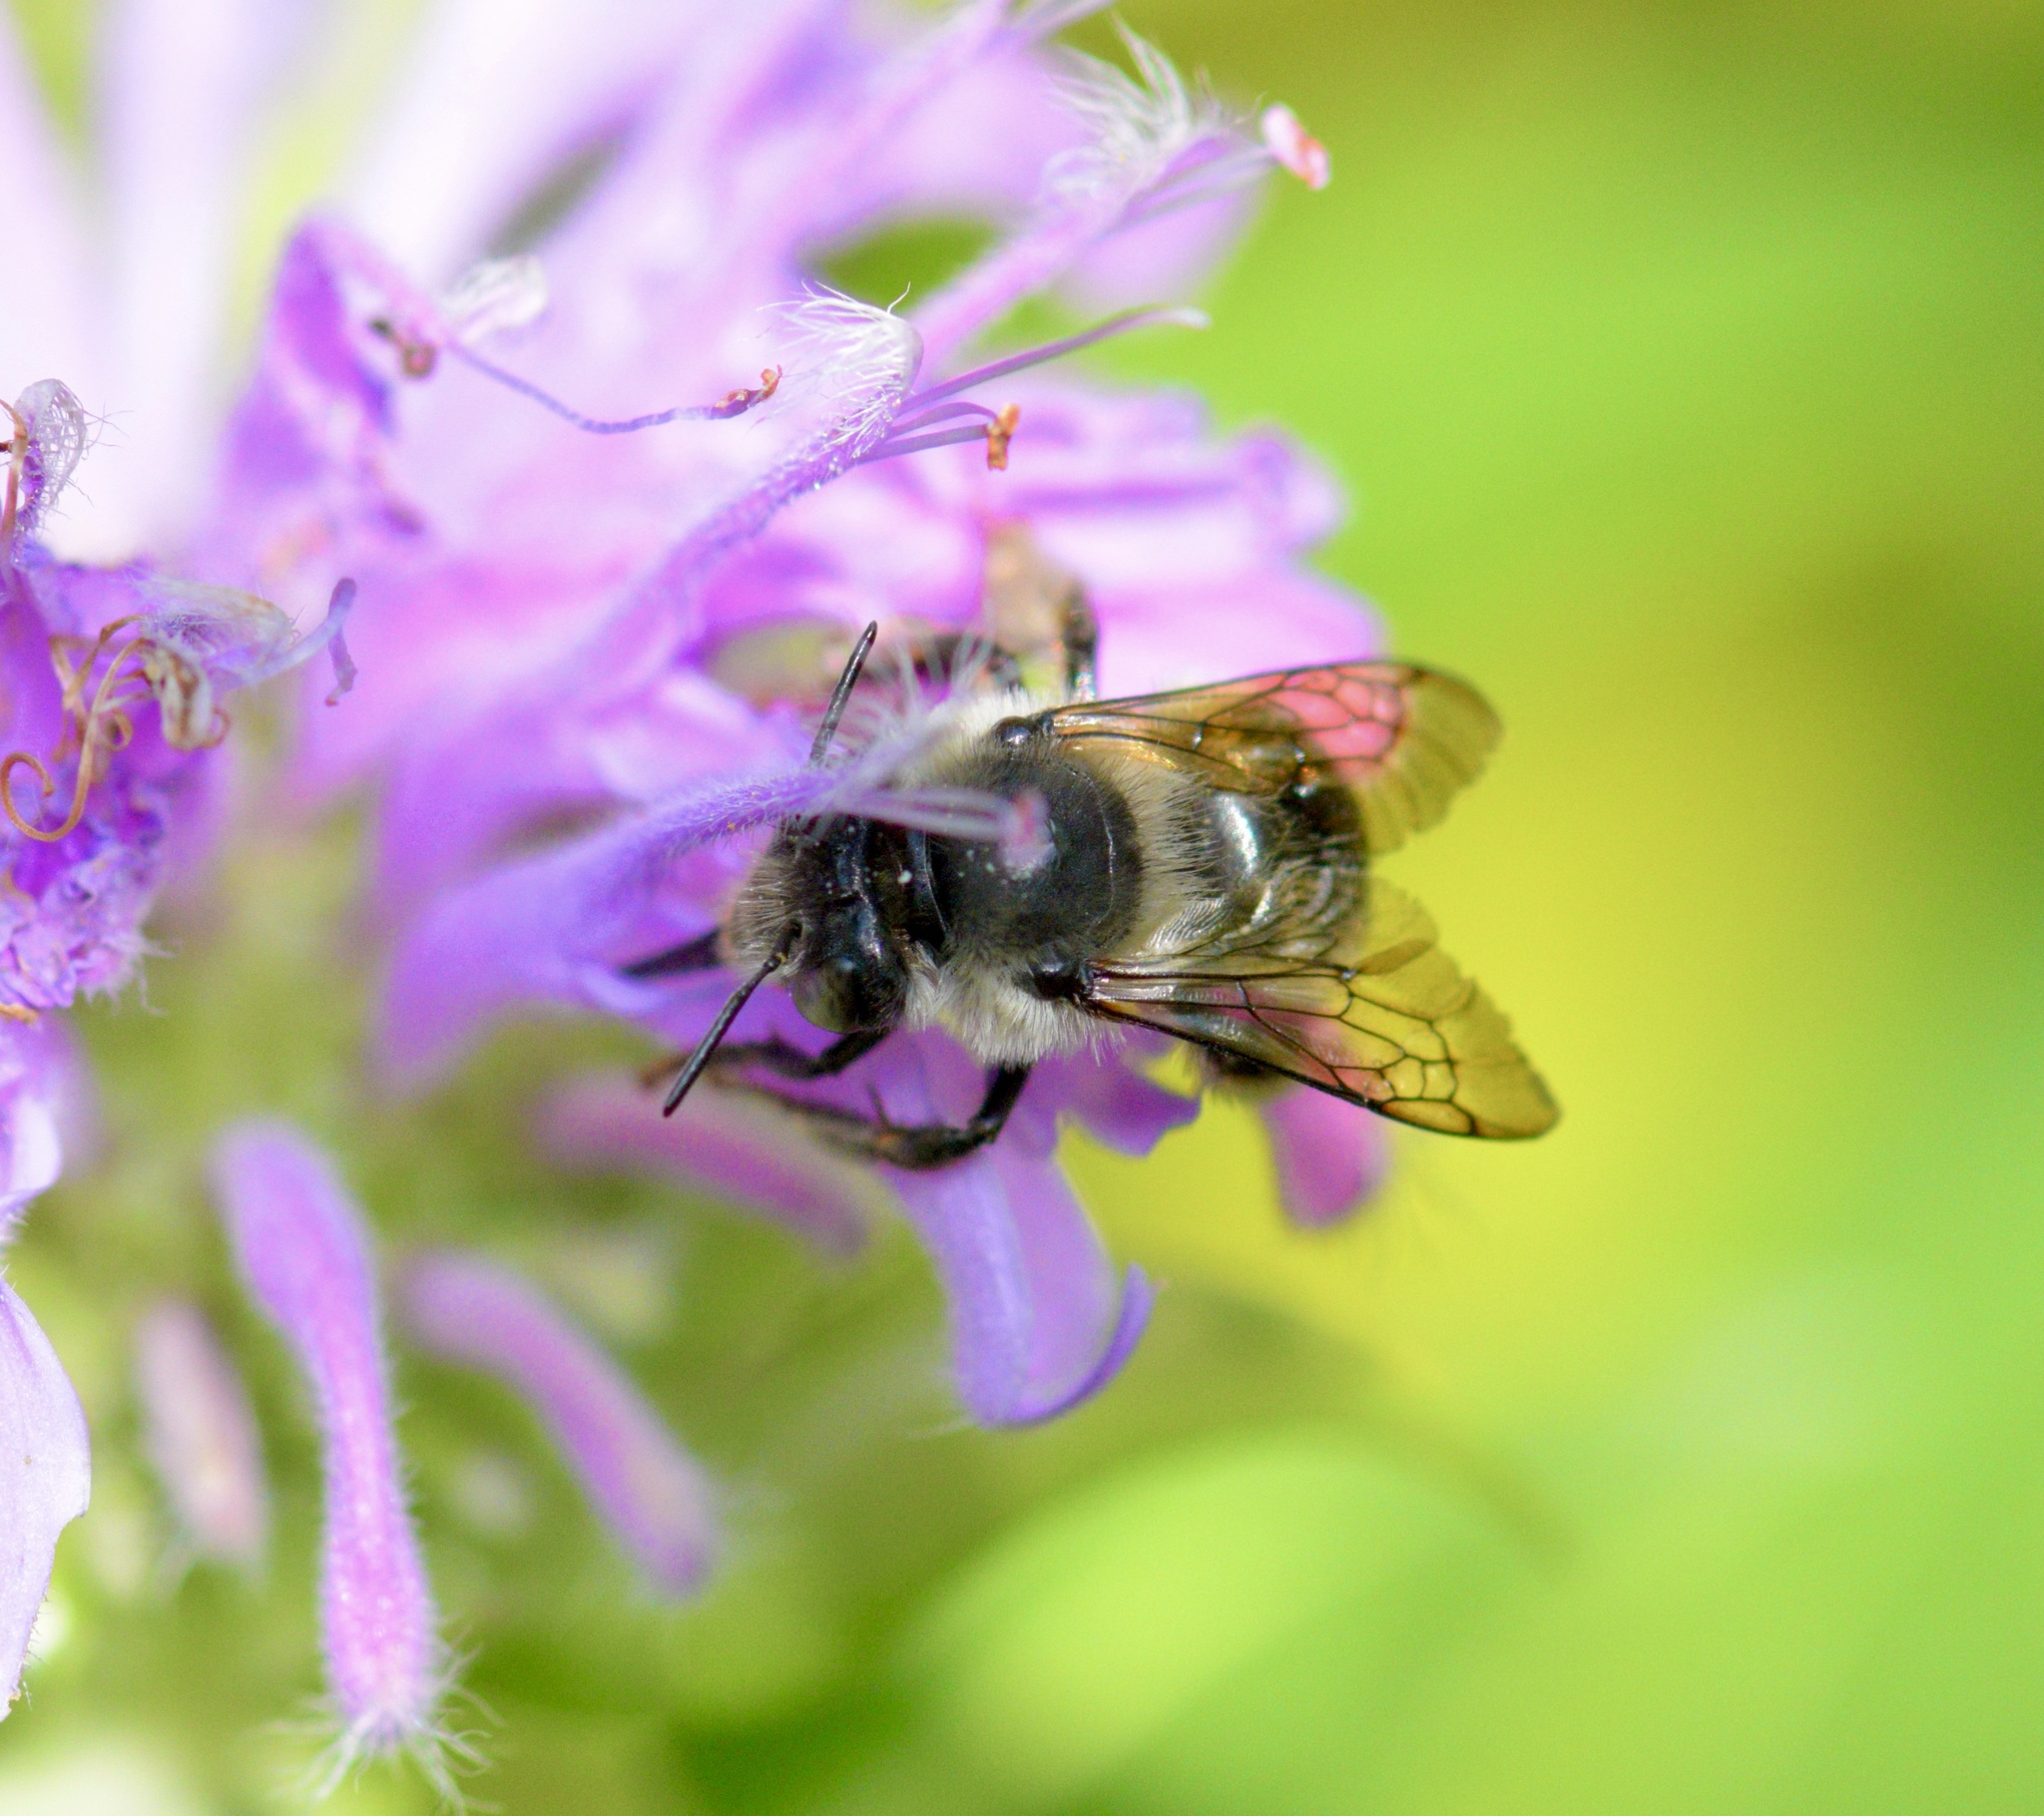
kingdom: Animalia
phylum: Arthropoda
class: Insecta
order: Hymenoptera
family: Apidae
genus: Anthophora
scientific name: Anthophora terminalis
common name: Orange-tipped wood-digger bee
